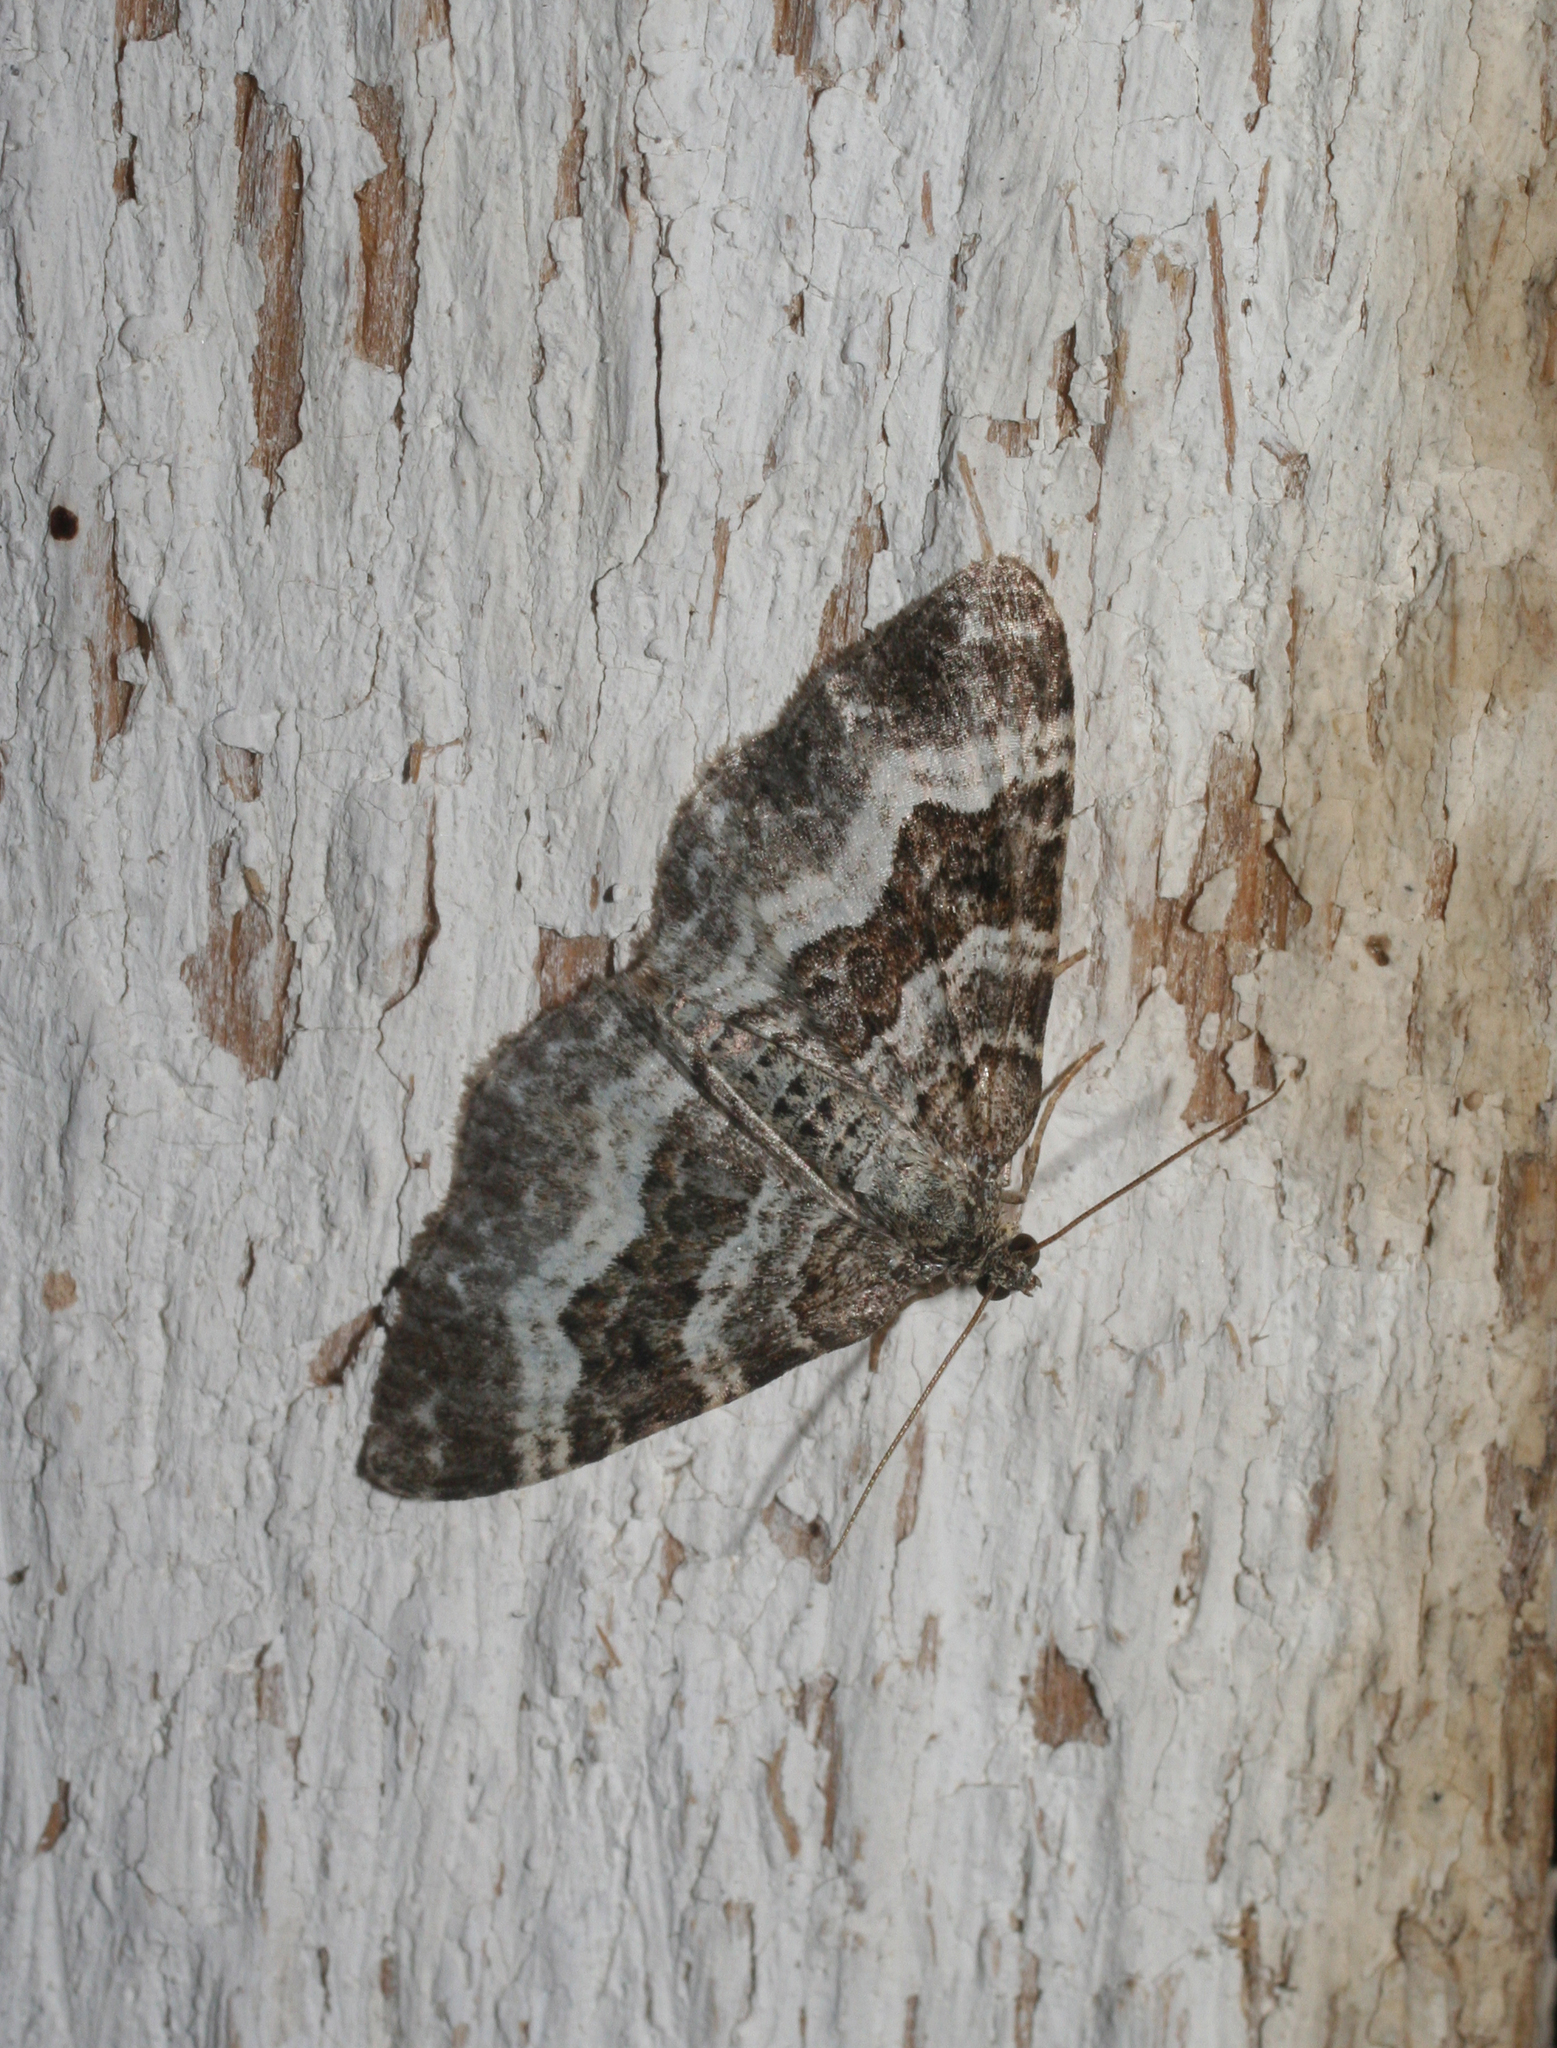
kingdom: Animalia
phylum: Arthropoda
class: Insecta
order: Lepidoptera
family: Geometridae
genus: Epirrhoe
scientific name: Epirrhoe alternata
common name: Common carpet
